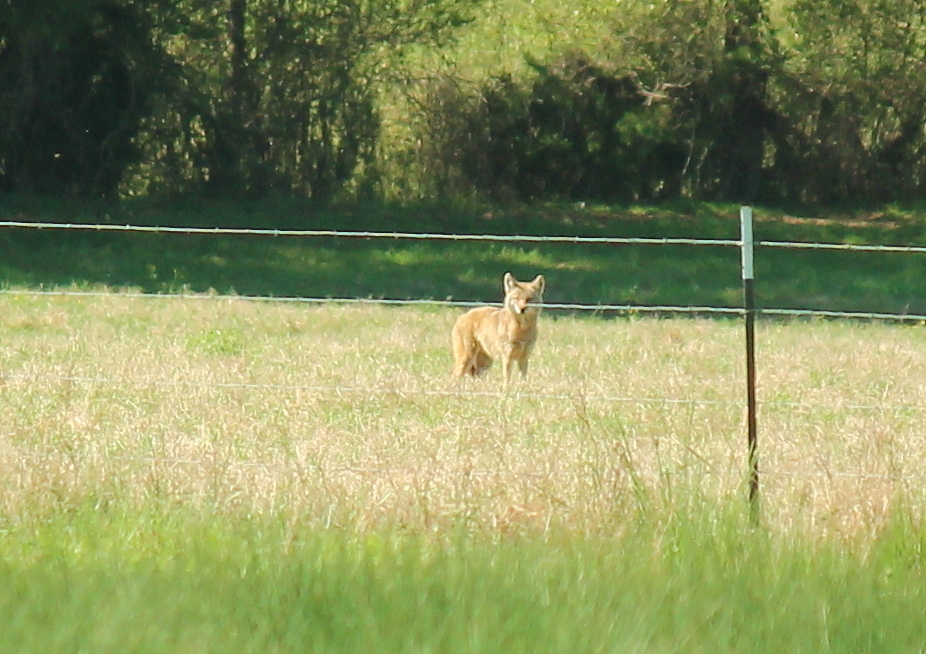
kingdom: Animalia
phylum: Chordata
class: Mammalia
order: Carnivora
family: Canidae
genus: Canis
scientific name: Canis latrans
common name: Coyote
